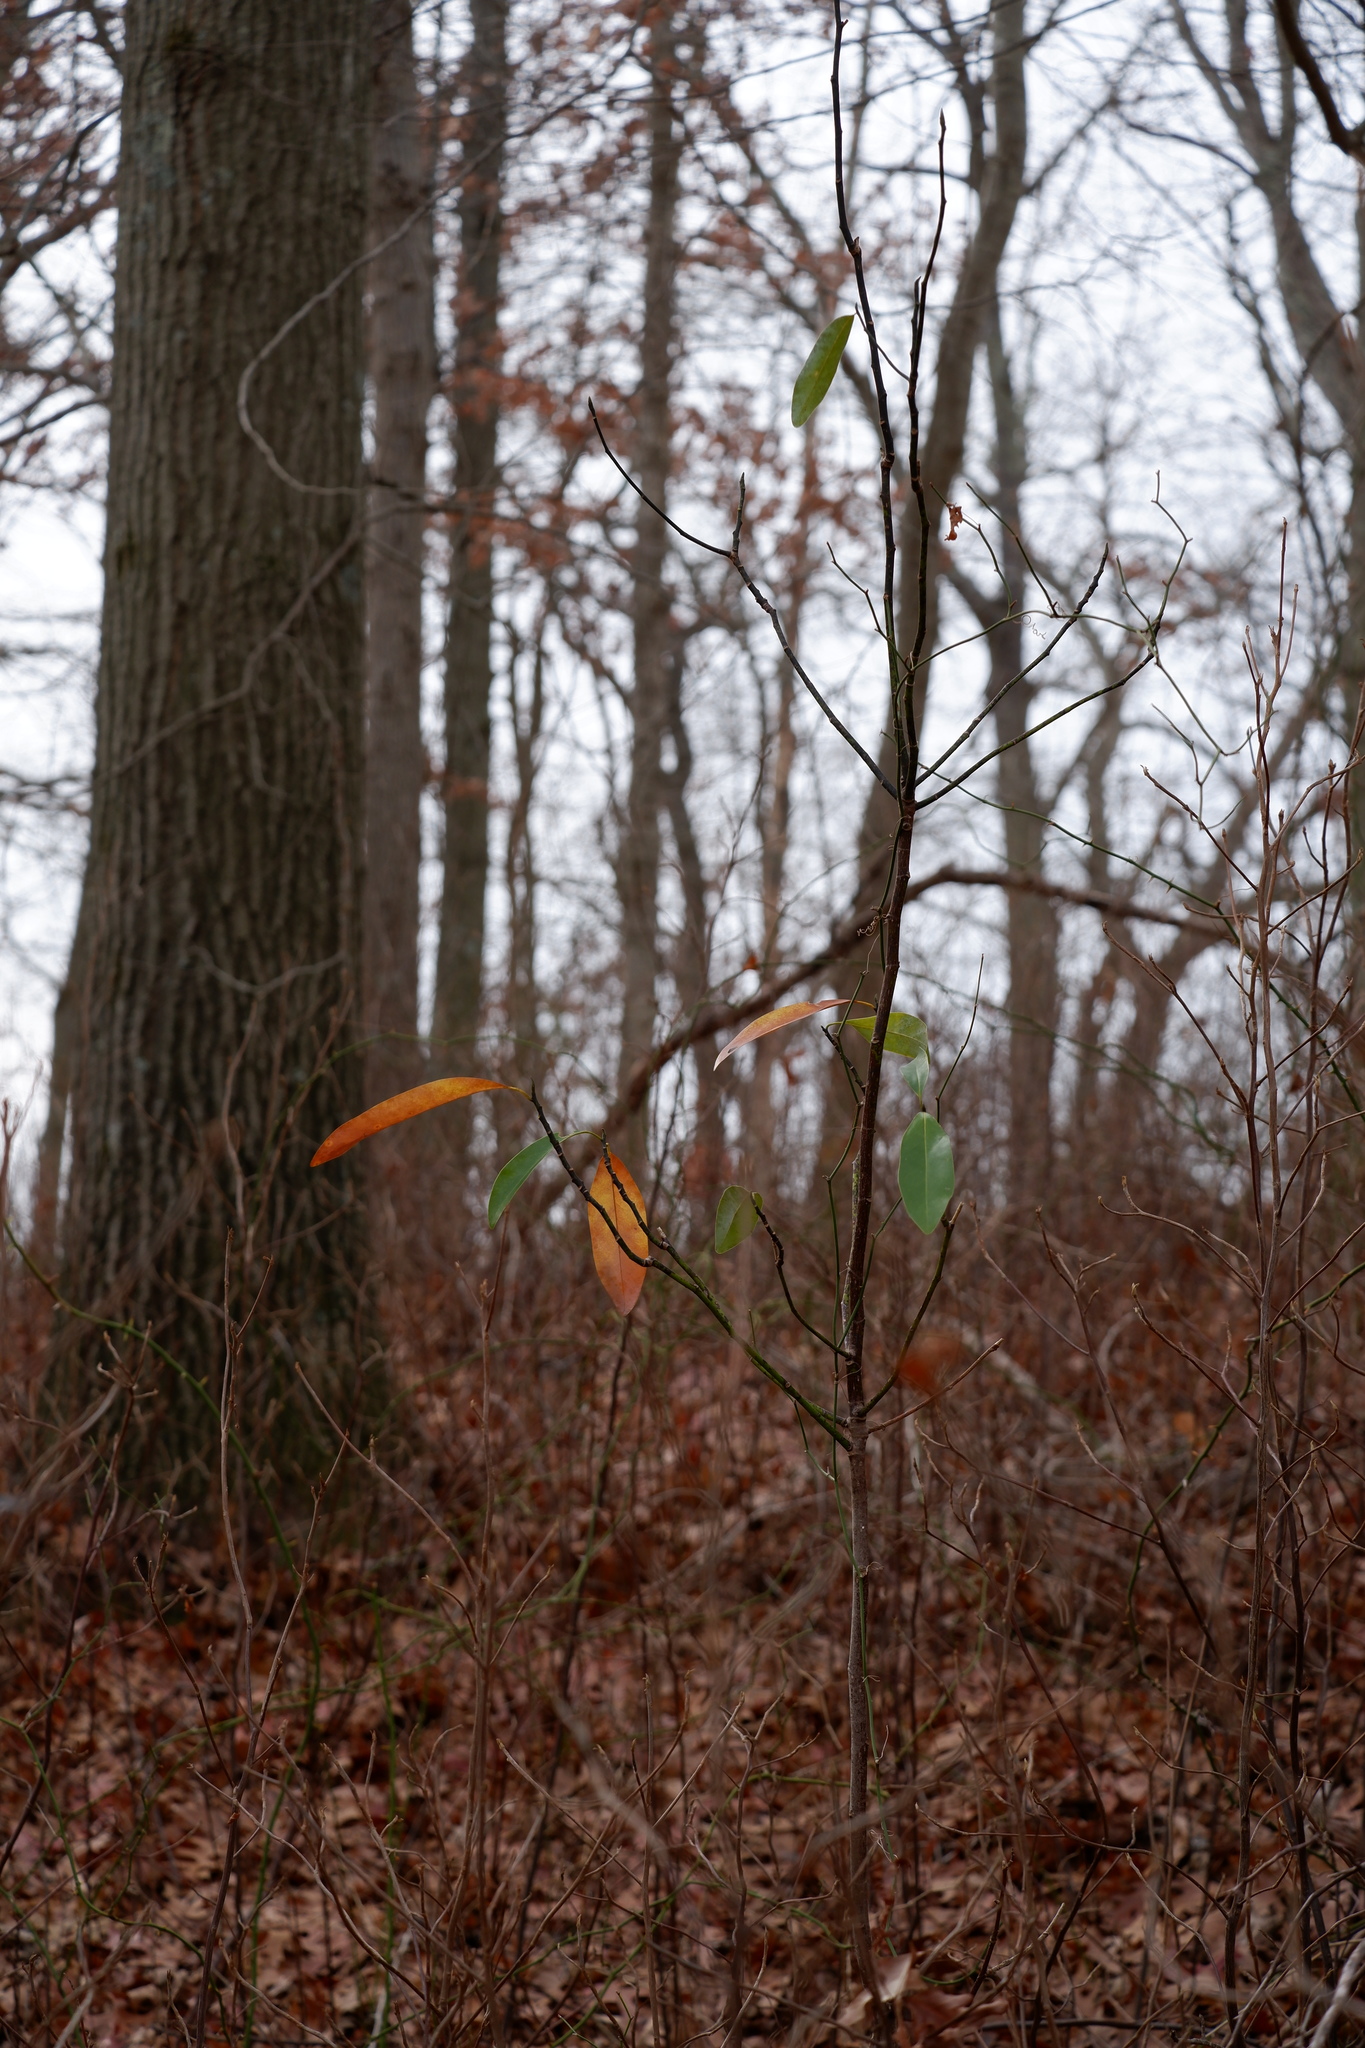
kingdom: Plantae
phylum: Tracheophyta
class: Magnoliopsida
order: Magnoliales
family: Magnoliaceae
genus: Magnolia
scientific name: Magnolia virginiana
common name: Swamp bay
